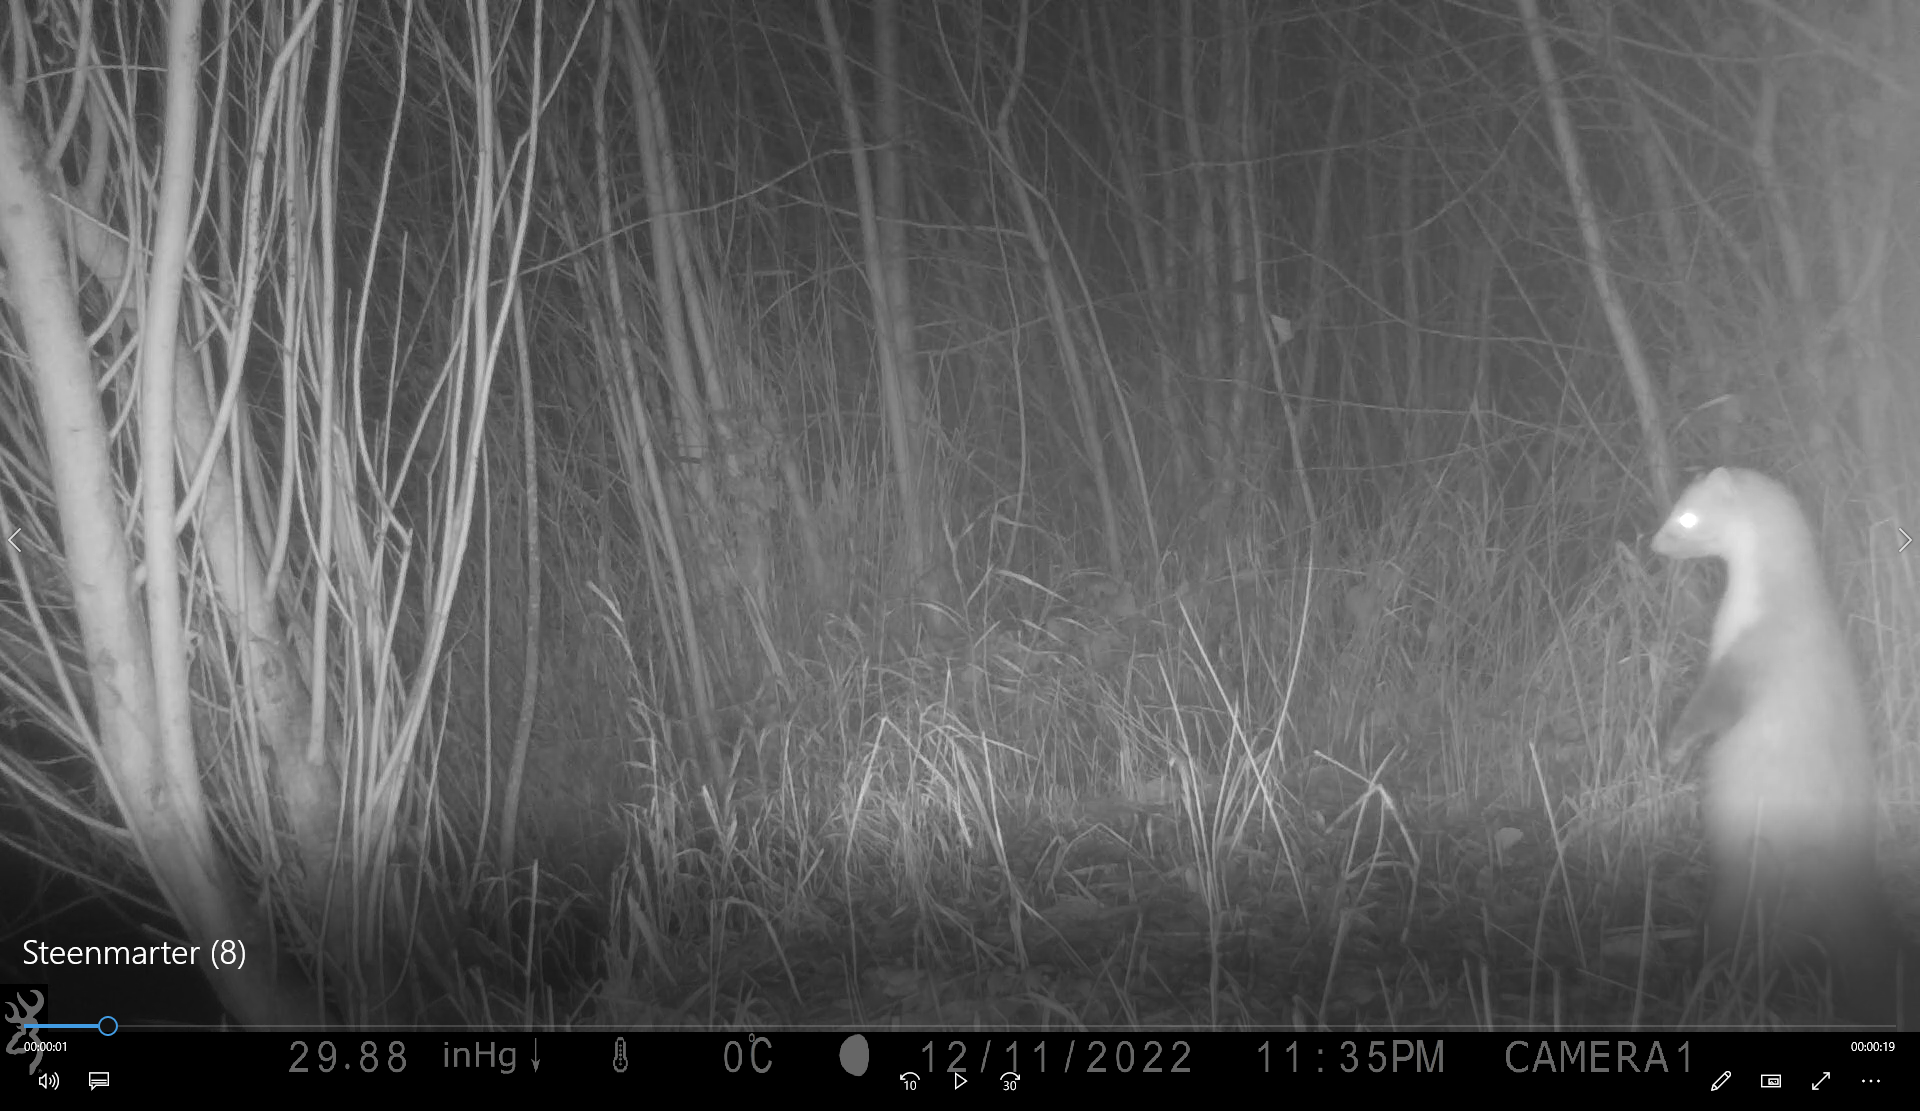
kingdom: Animalia
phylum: Chordata
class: Mammalia
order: Carnivora
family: Mustelidae
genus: Martes
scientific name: Martes foina
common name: Beech marten
